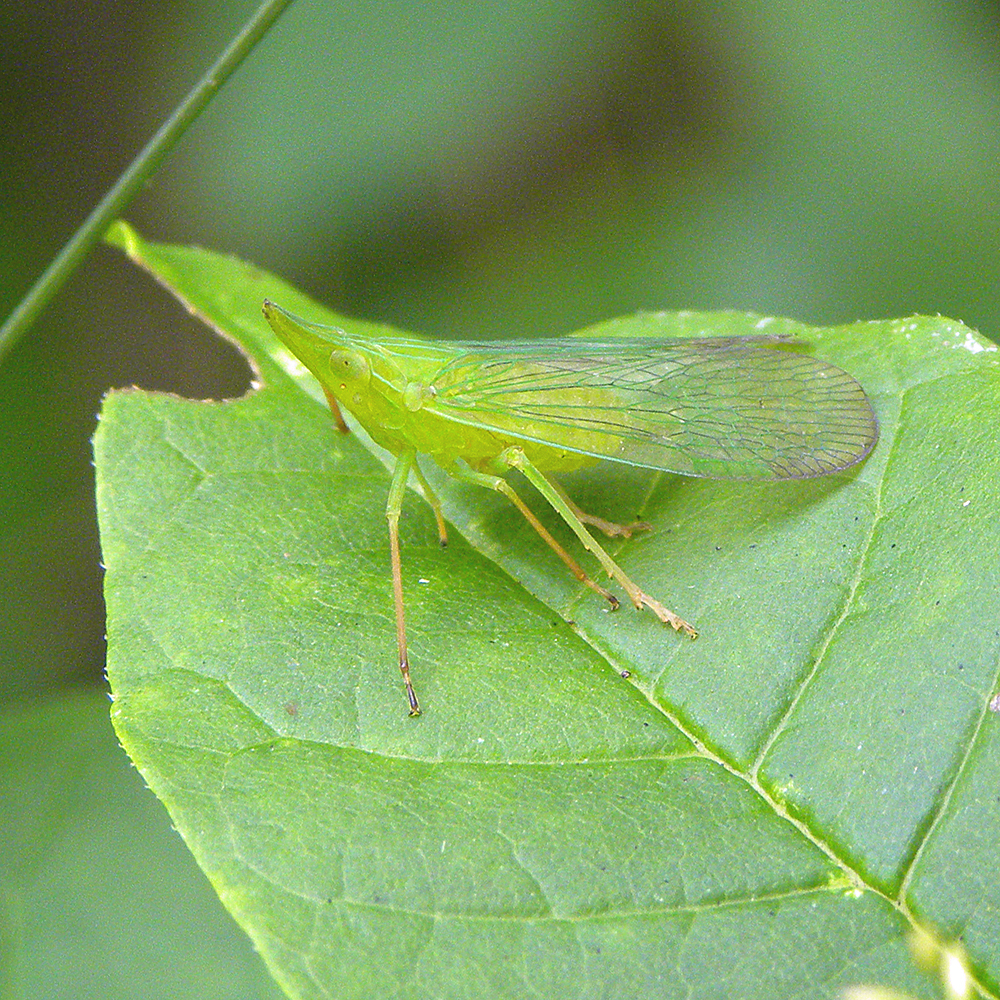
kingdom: Animalia
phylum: Arthropoda
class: Insecta
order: Hemiptera
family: Dictyopharidae
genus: Rhynchomitra
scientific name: Rhynchomitra microrhina
